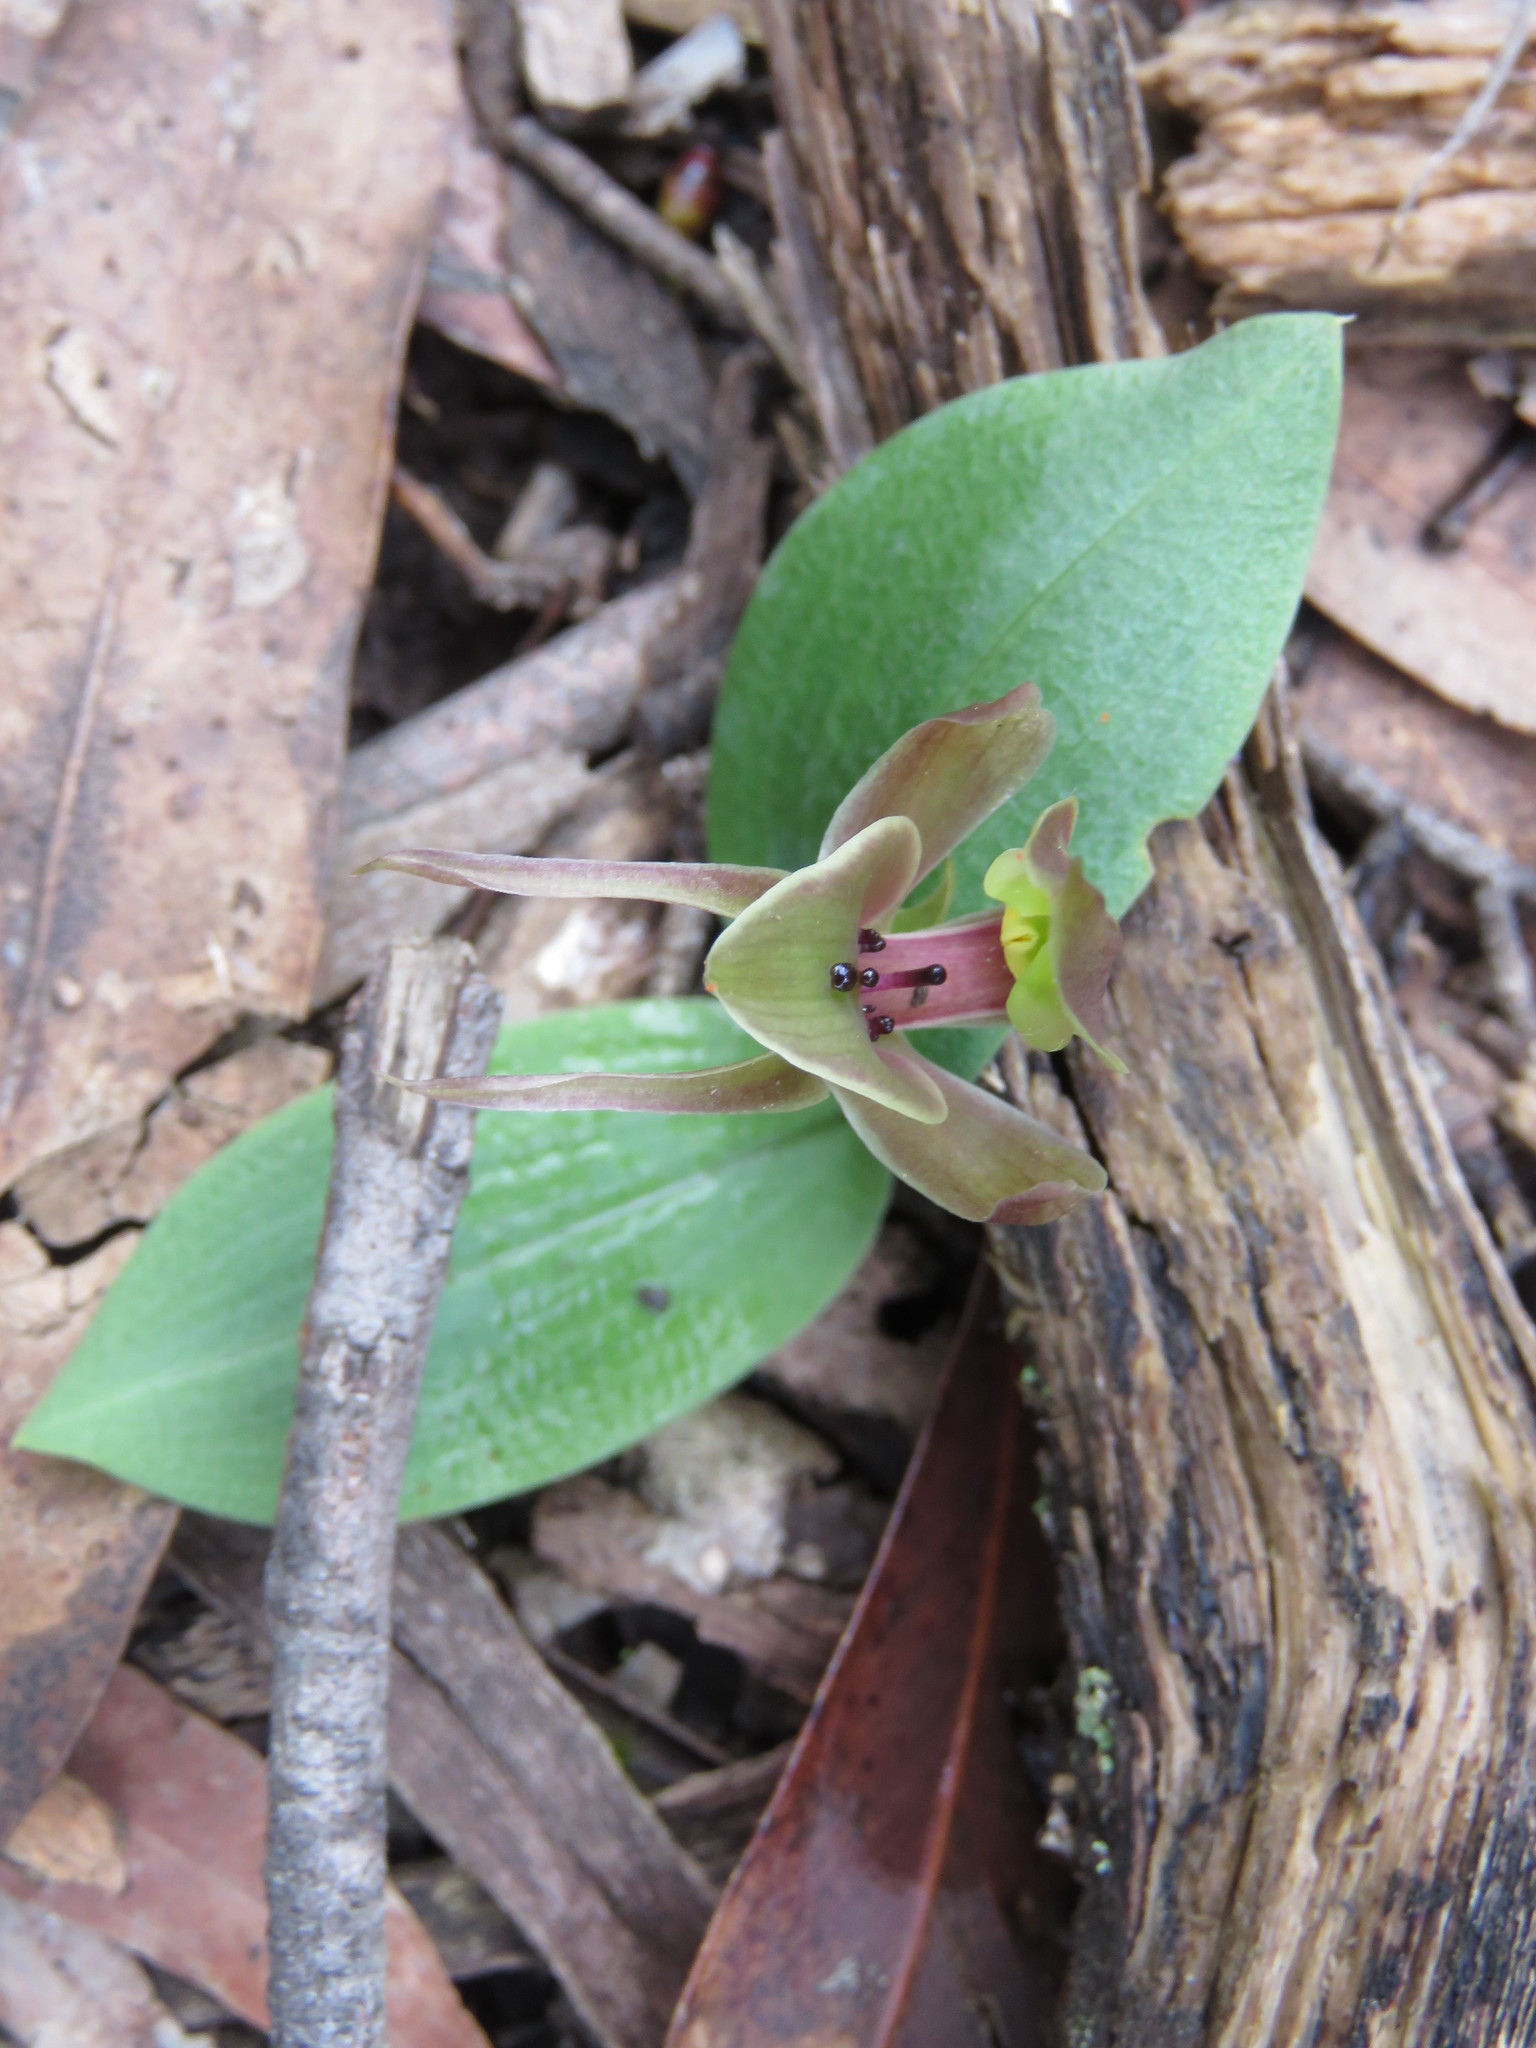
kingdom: Plantae
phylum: Tracheophyta
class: Liliopsida
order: Asparagales
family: Orchidaceae
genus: Chiloglottis
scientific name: Chiloglottis valida
